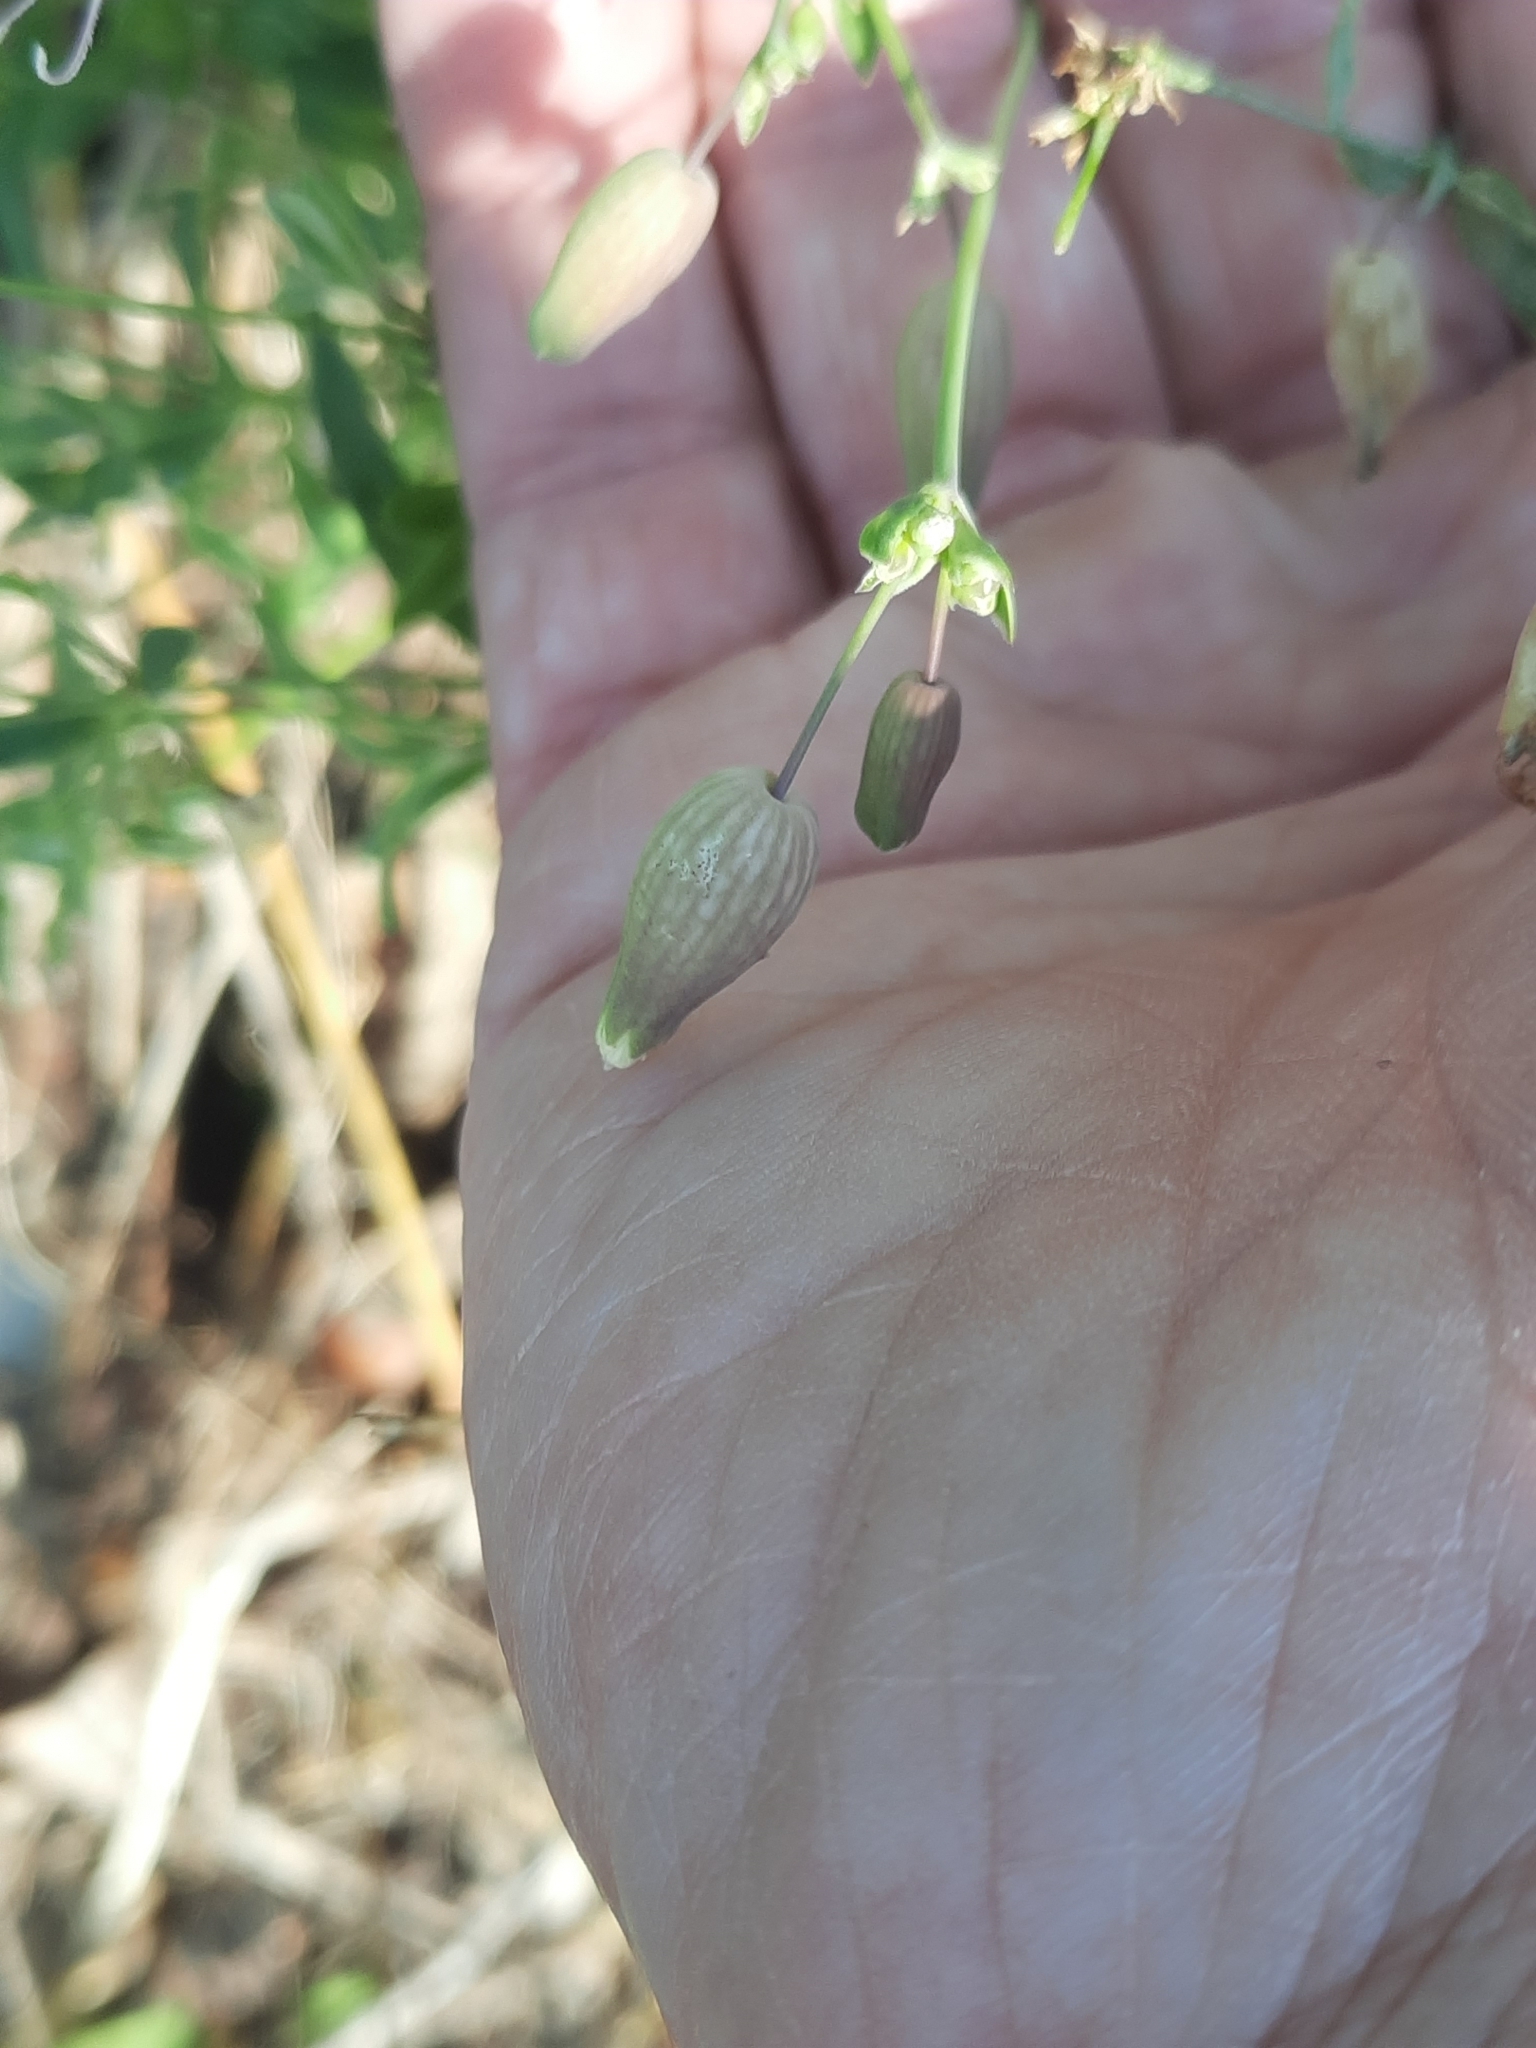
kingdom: Plantae
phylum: Tracheophyta
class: Magnoliopsida
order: Caryophyllales
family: Caryophyllaceae
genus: Silene
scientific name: Silene vulgaris
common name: Bladder campion
